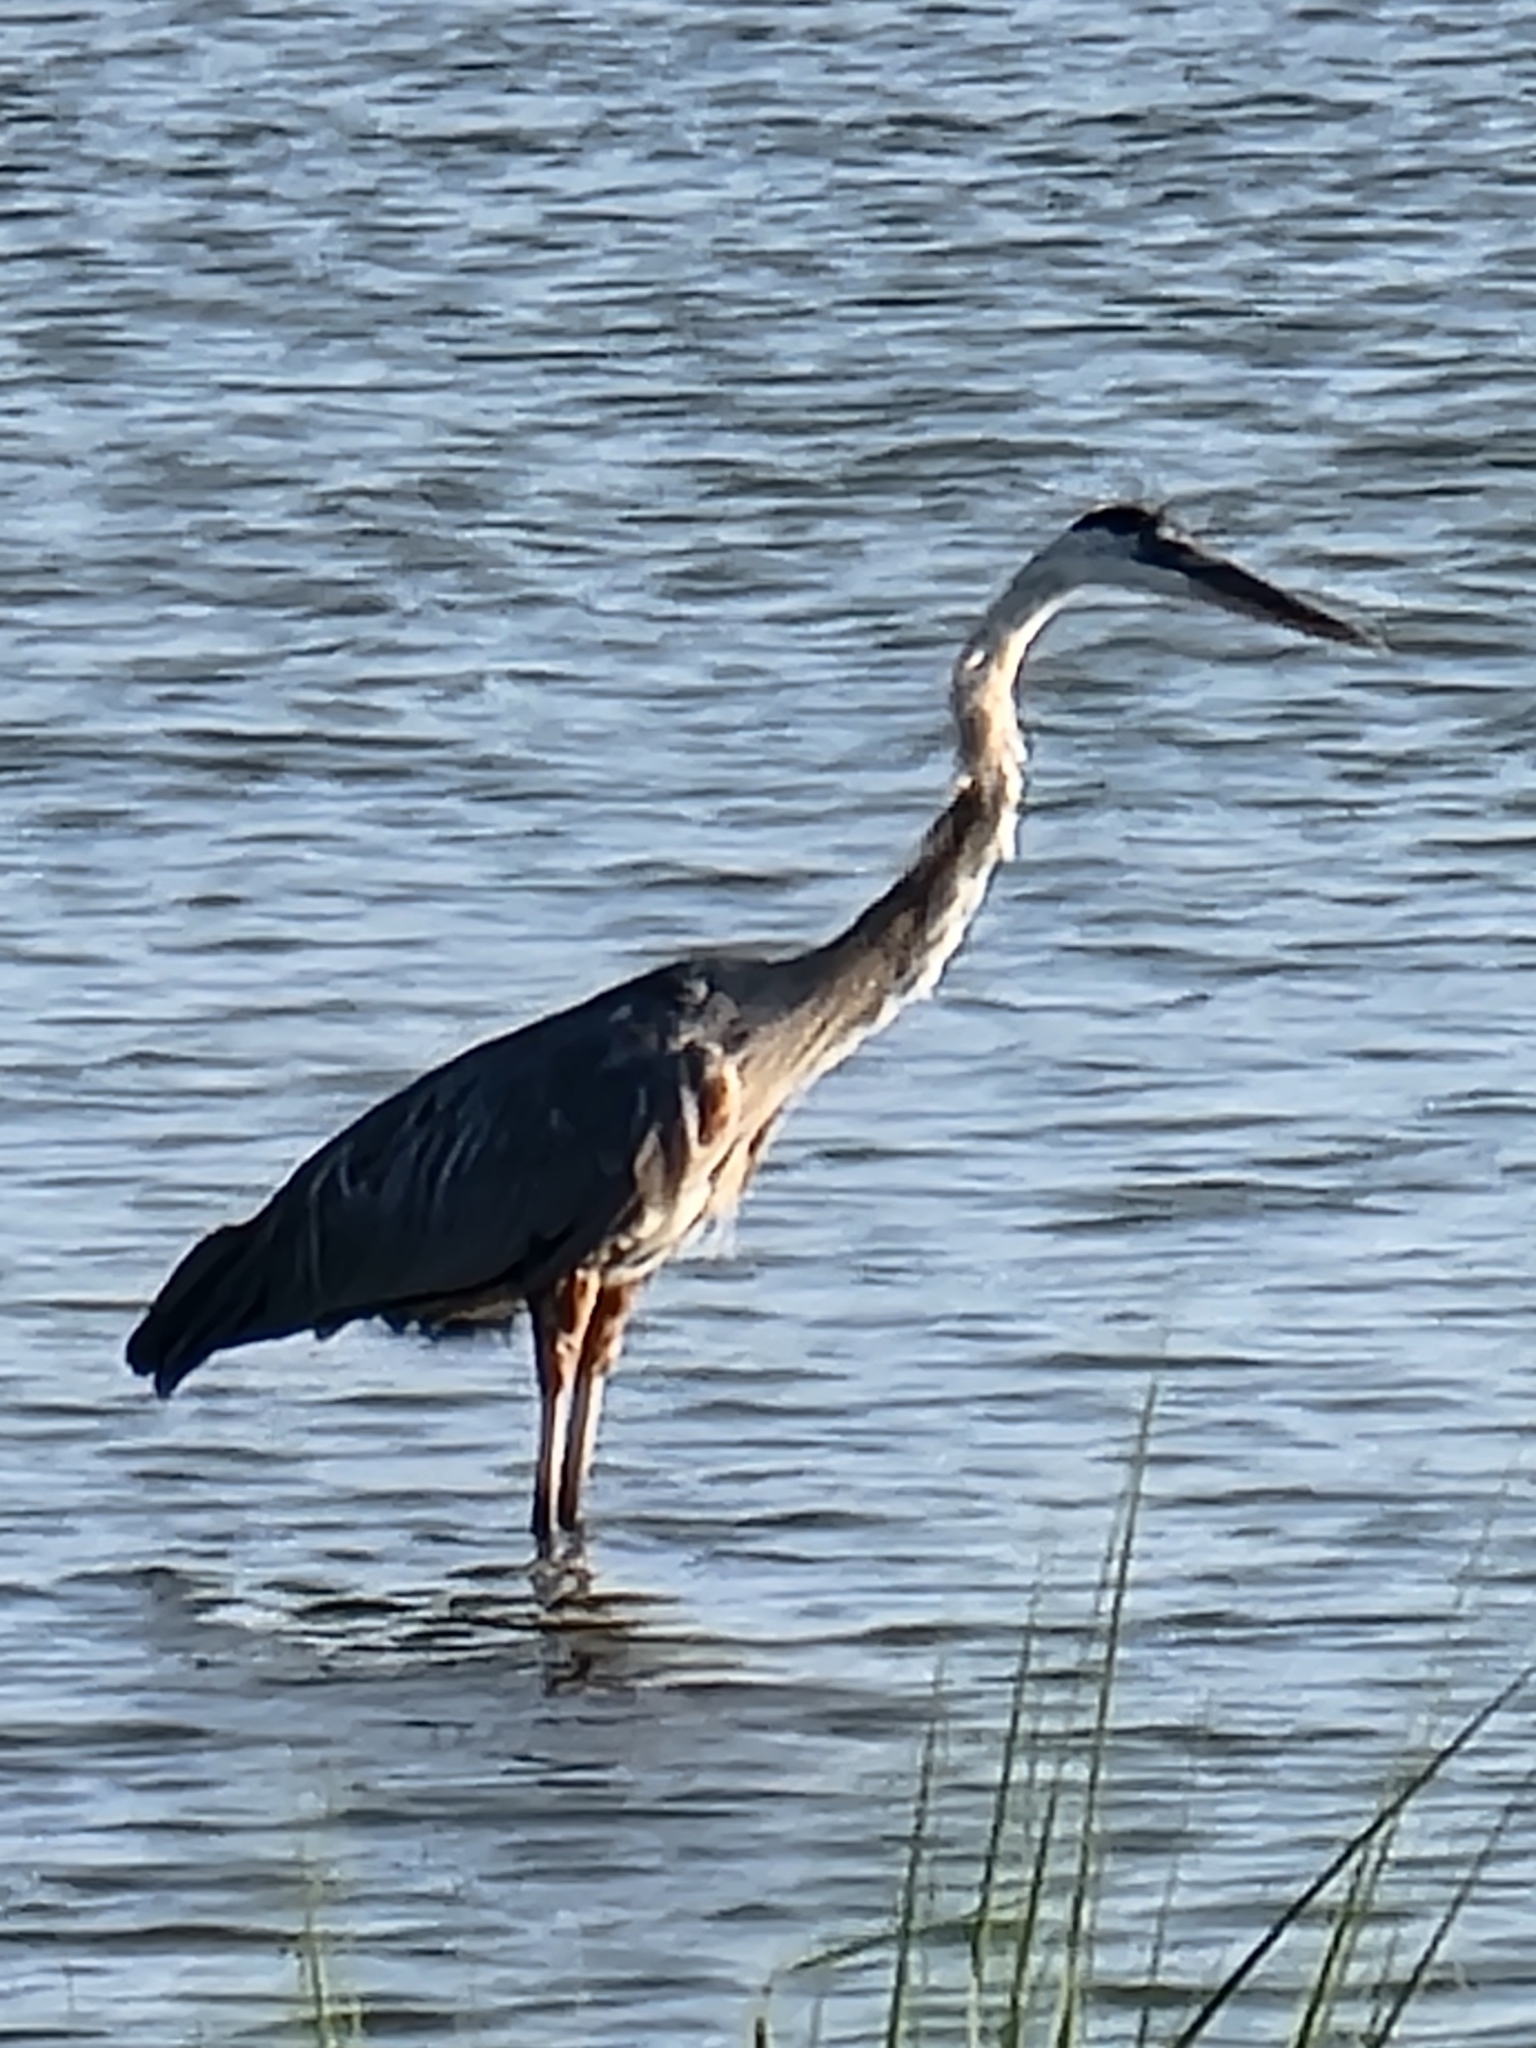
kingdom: Animalia
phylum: Chordata
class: Aves
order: Pelecaniformes
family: Ardeidae
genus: Ardea
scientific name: Ardea herodias
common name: Great blue heron
